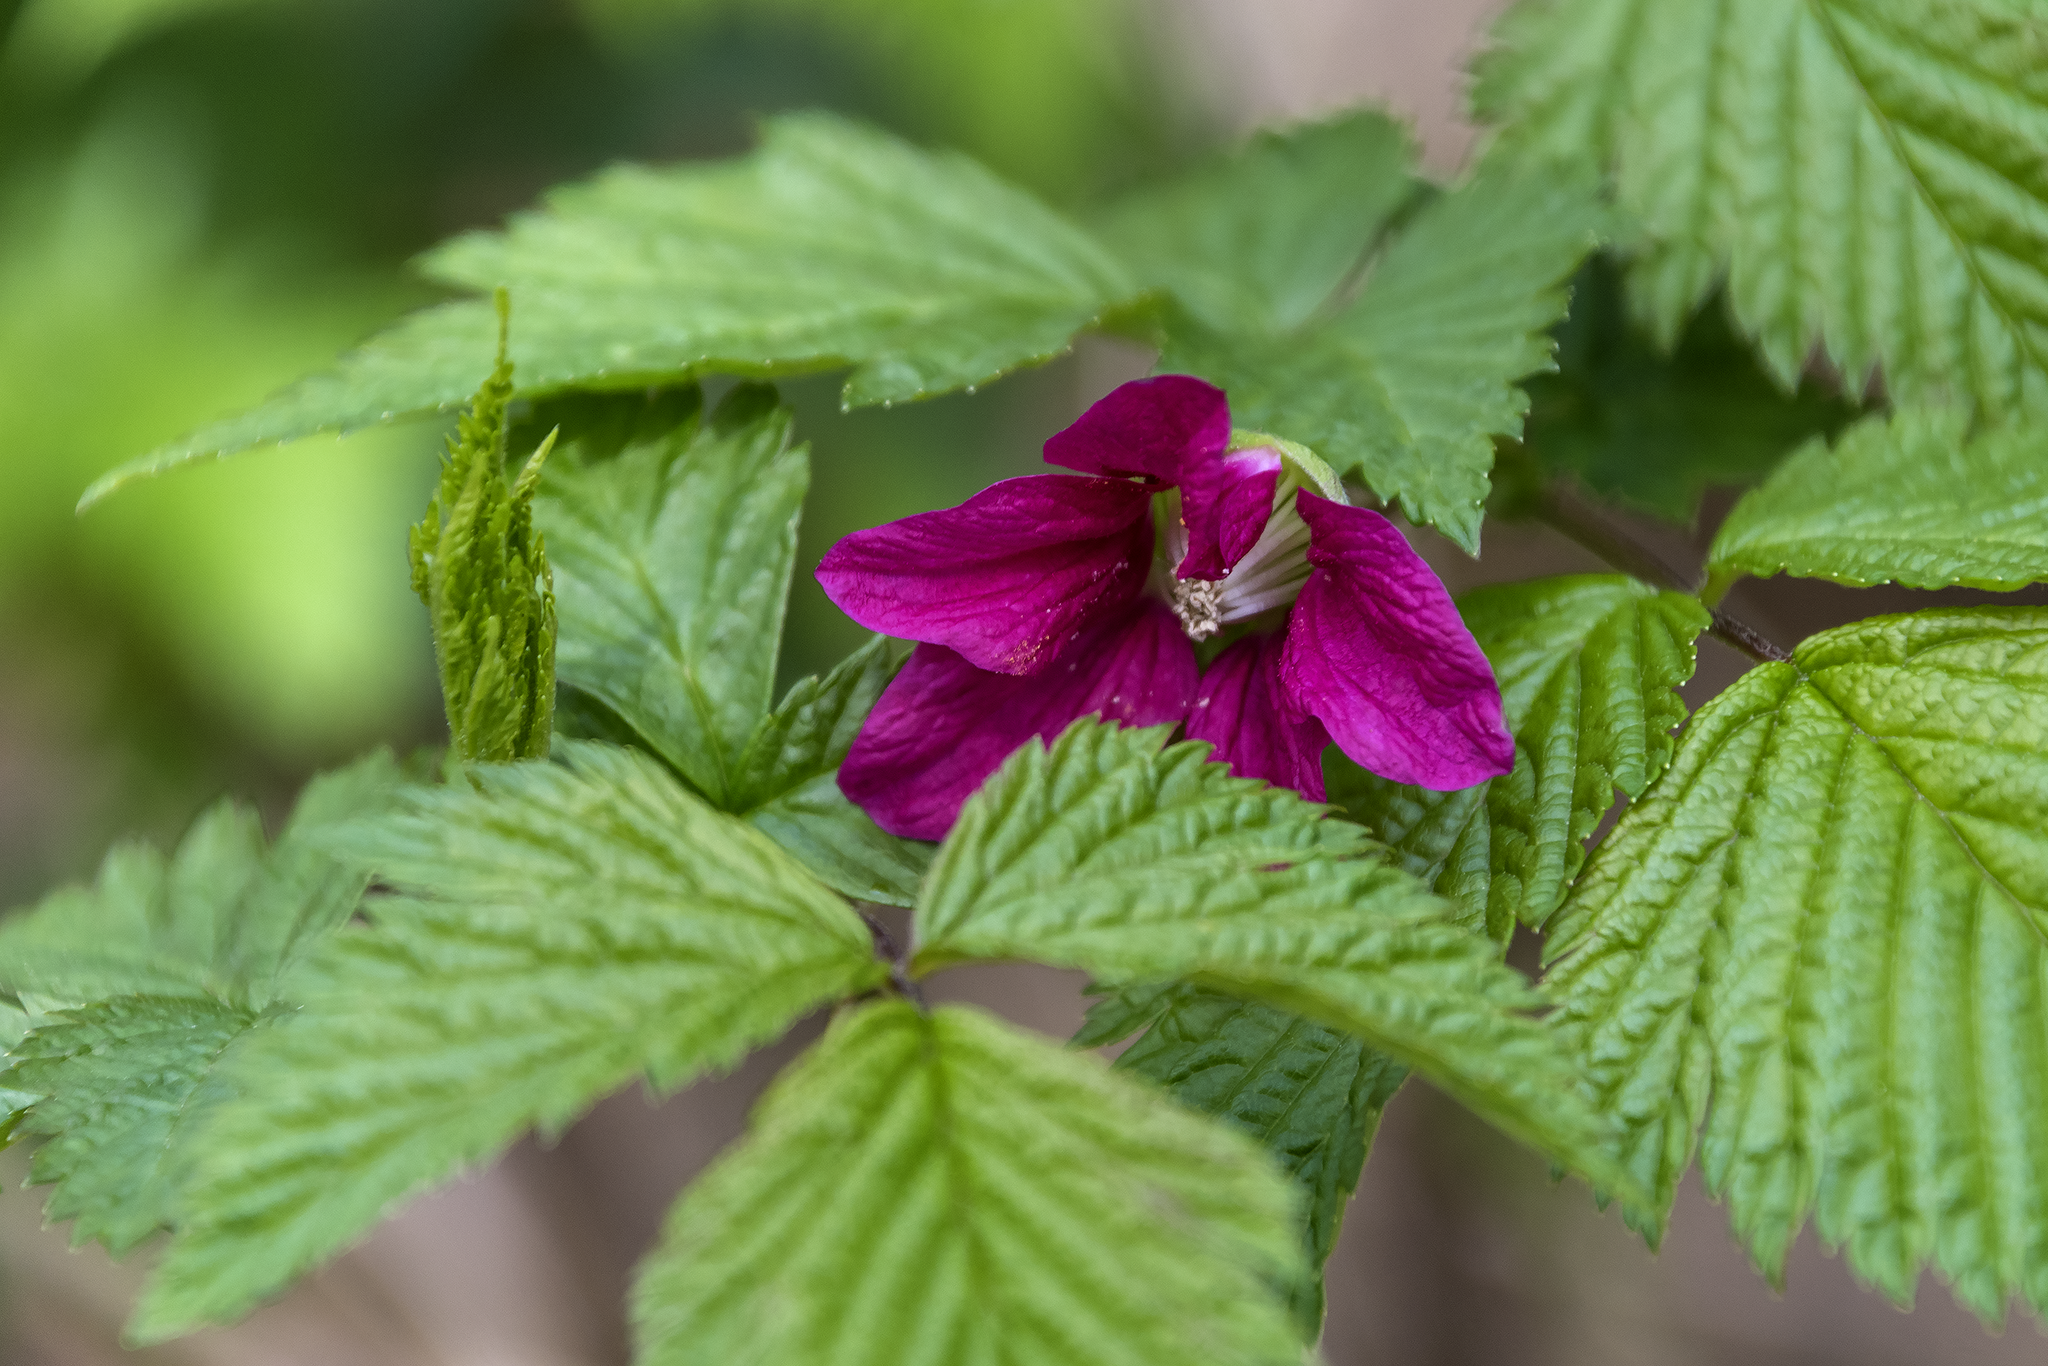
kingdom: Plantae
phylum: Tracheophyta
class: Magnoliopsida
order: Rosales
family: Rosaceae
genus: Rubus
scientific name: Rubus spectabilis
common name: Salmonberry
